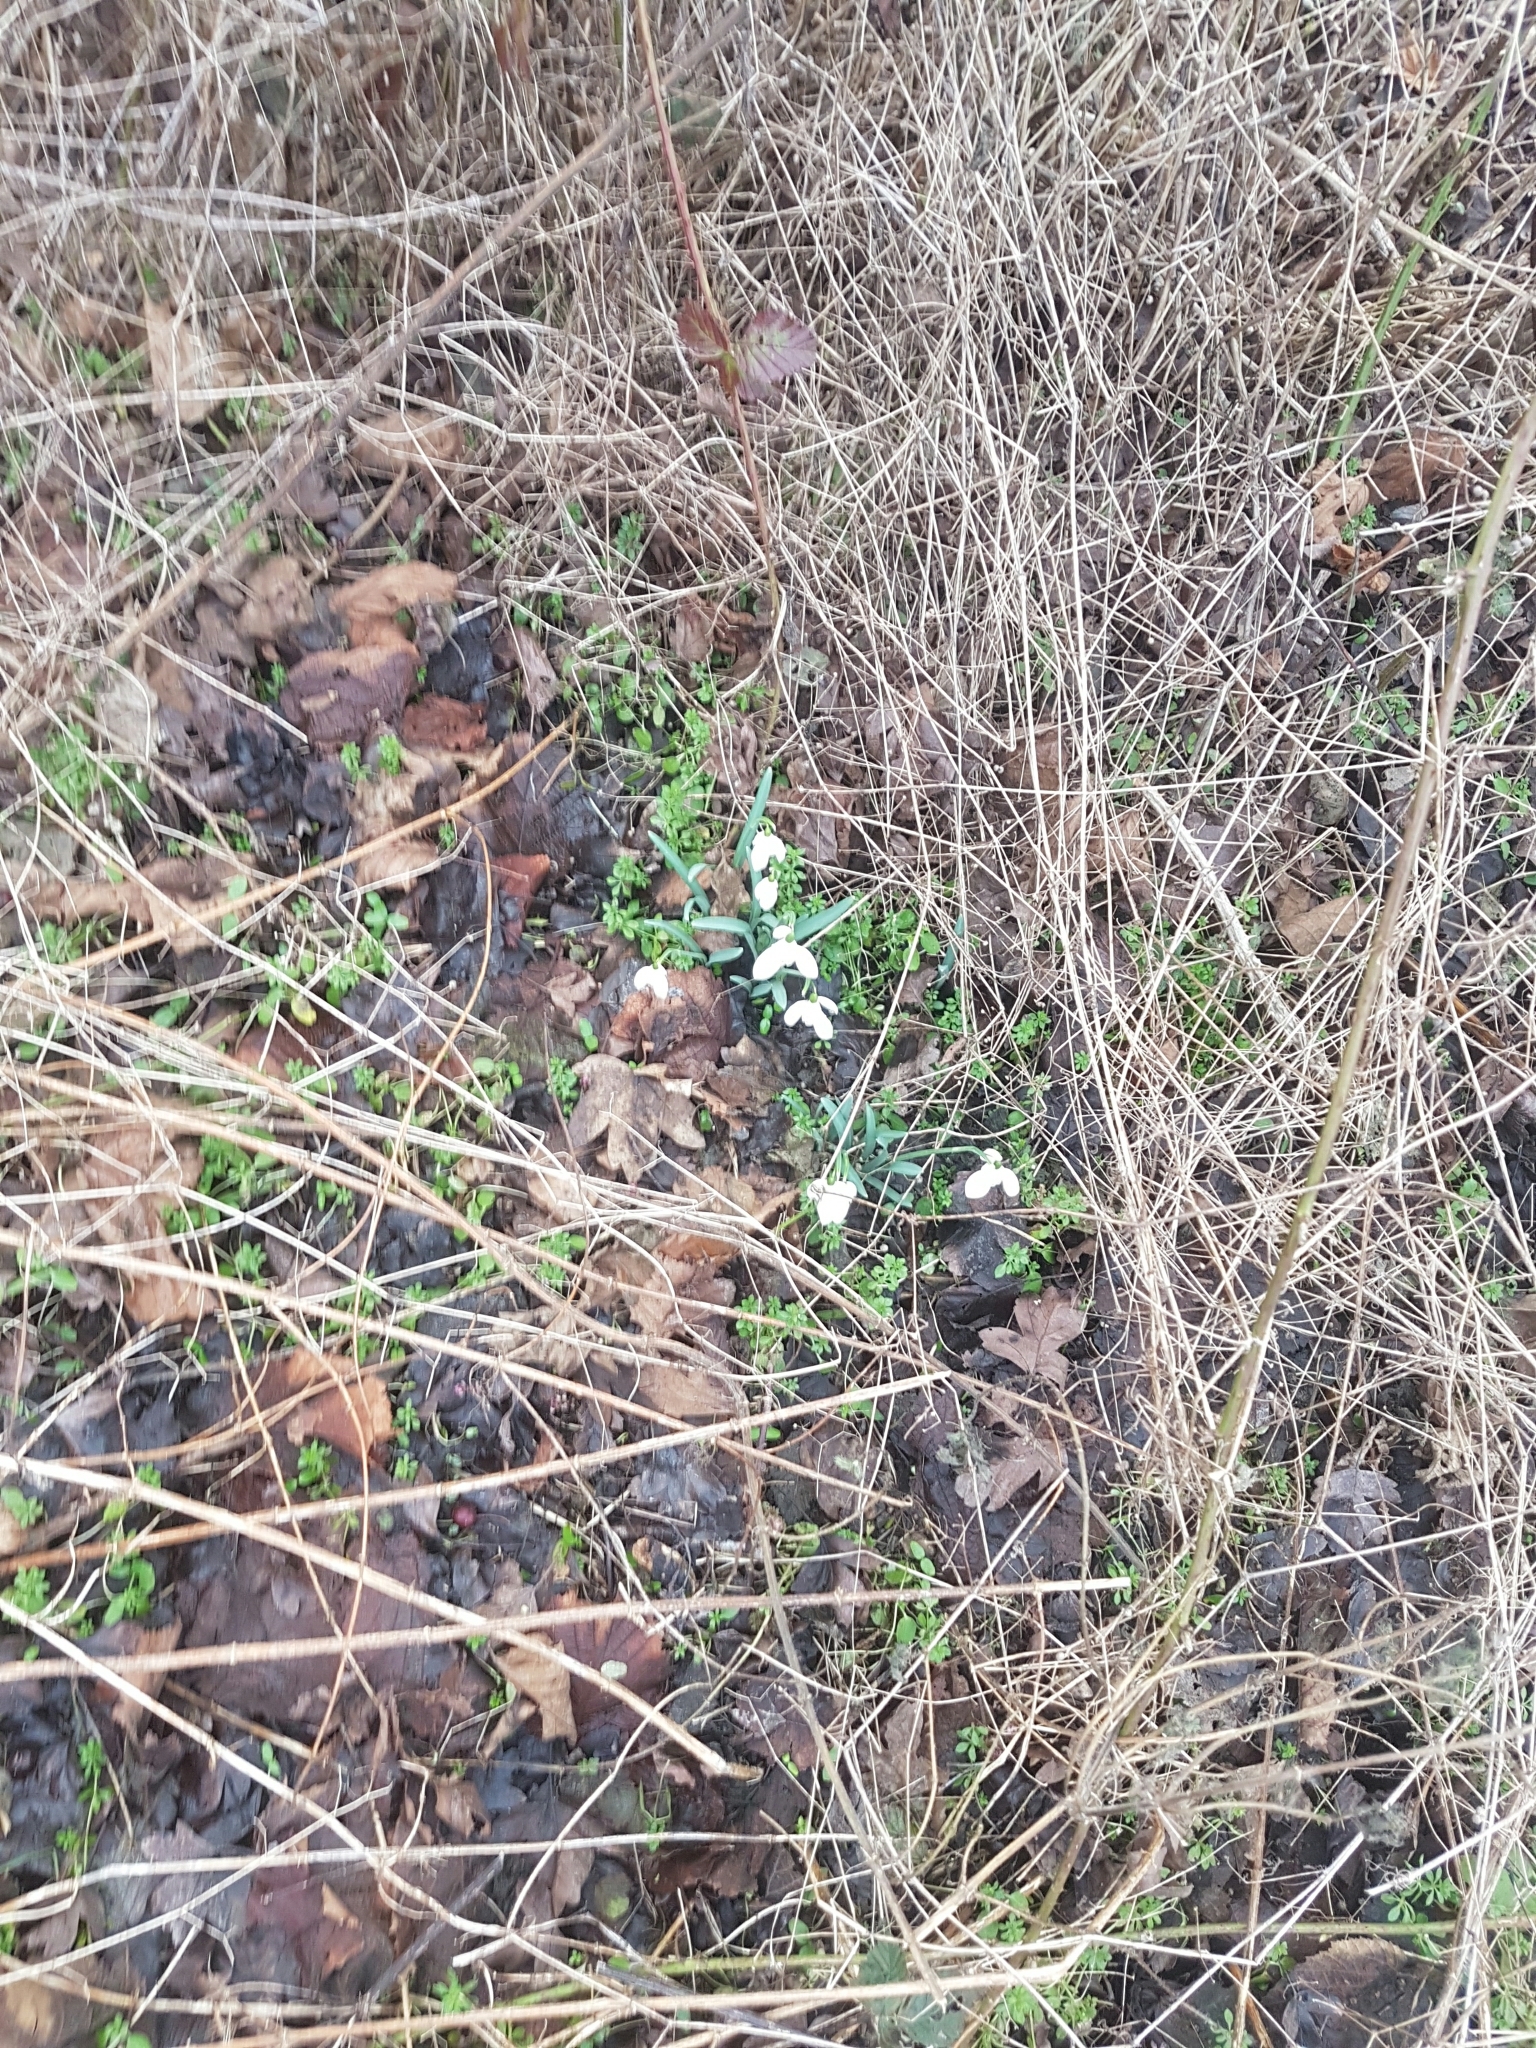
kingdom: Plantae
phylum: Tracheophyta
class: Liliopsida
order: Asparagales
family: Amaryllidaceae
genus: Galanthus
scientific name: Galanthus nivalis
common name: Snowdrop
